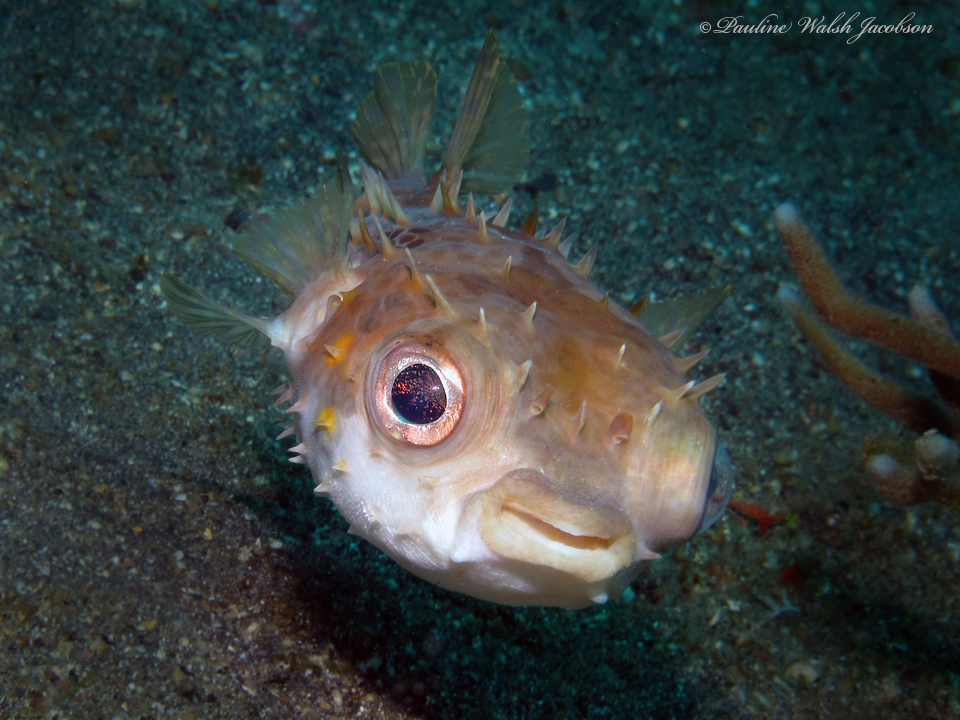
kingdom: Animalia
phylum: Chordata
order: Tetraodontiformes
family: Diodontidae
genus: Cyclichthys
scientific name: Cyclichthys orbicularis
